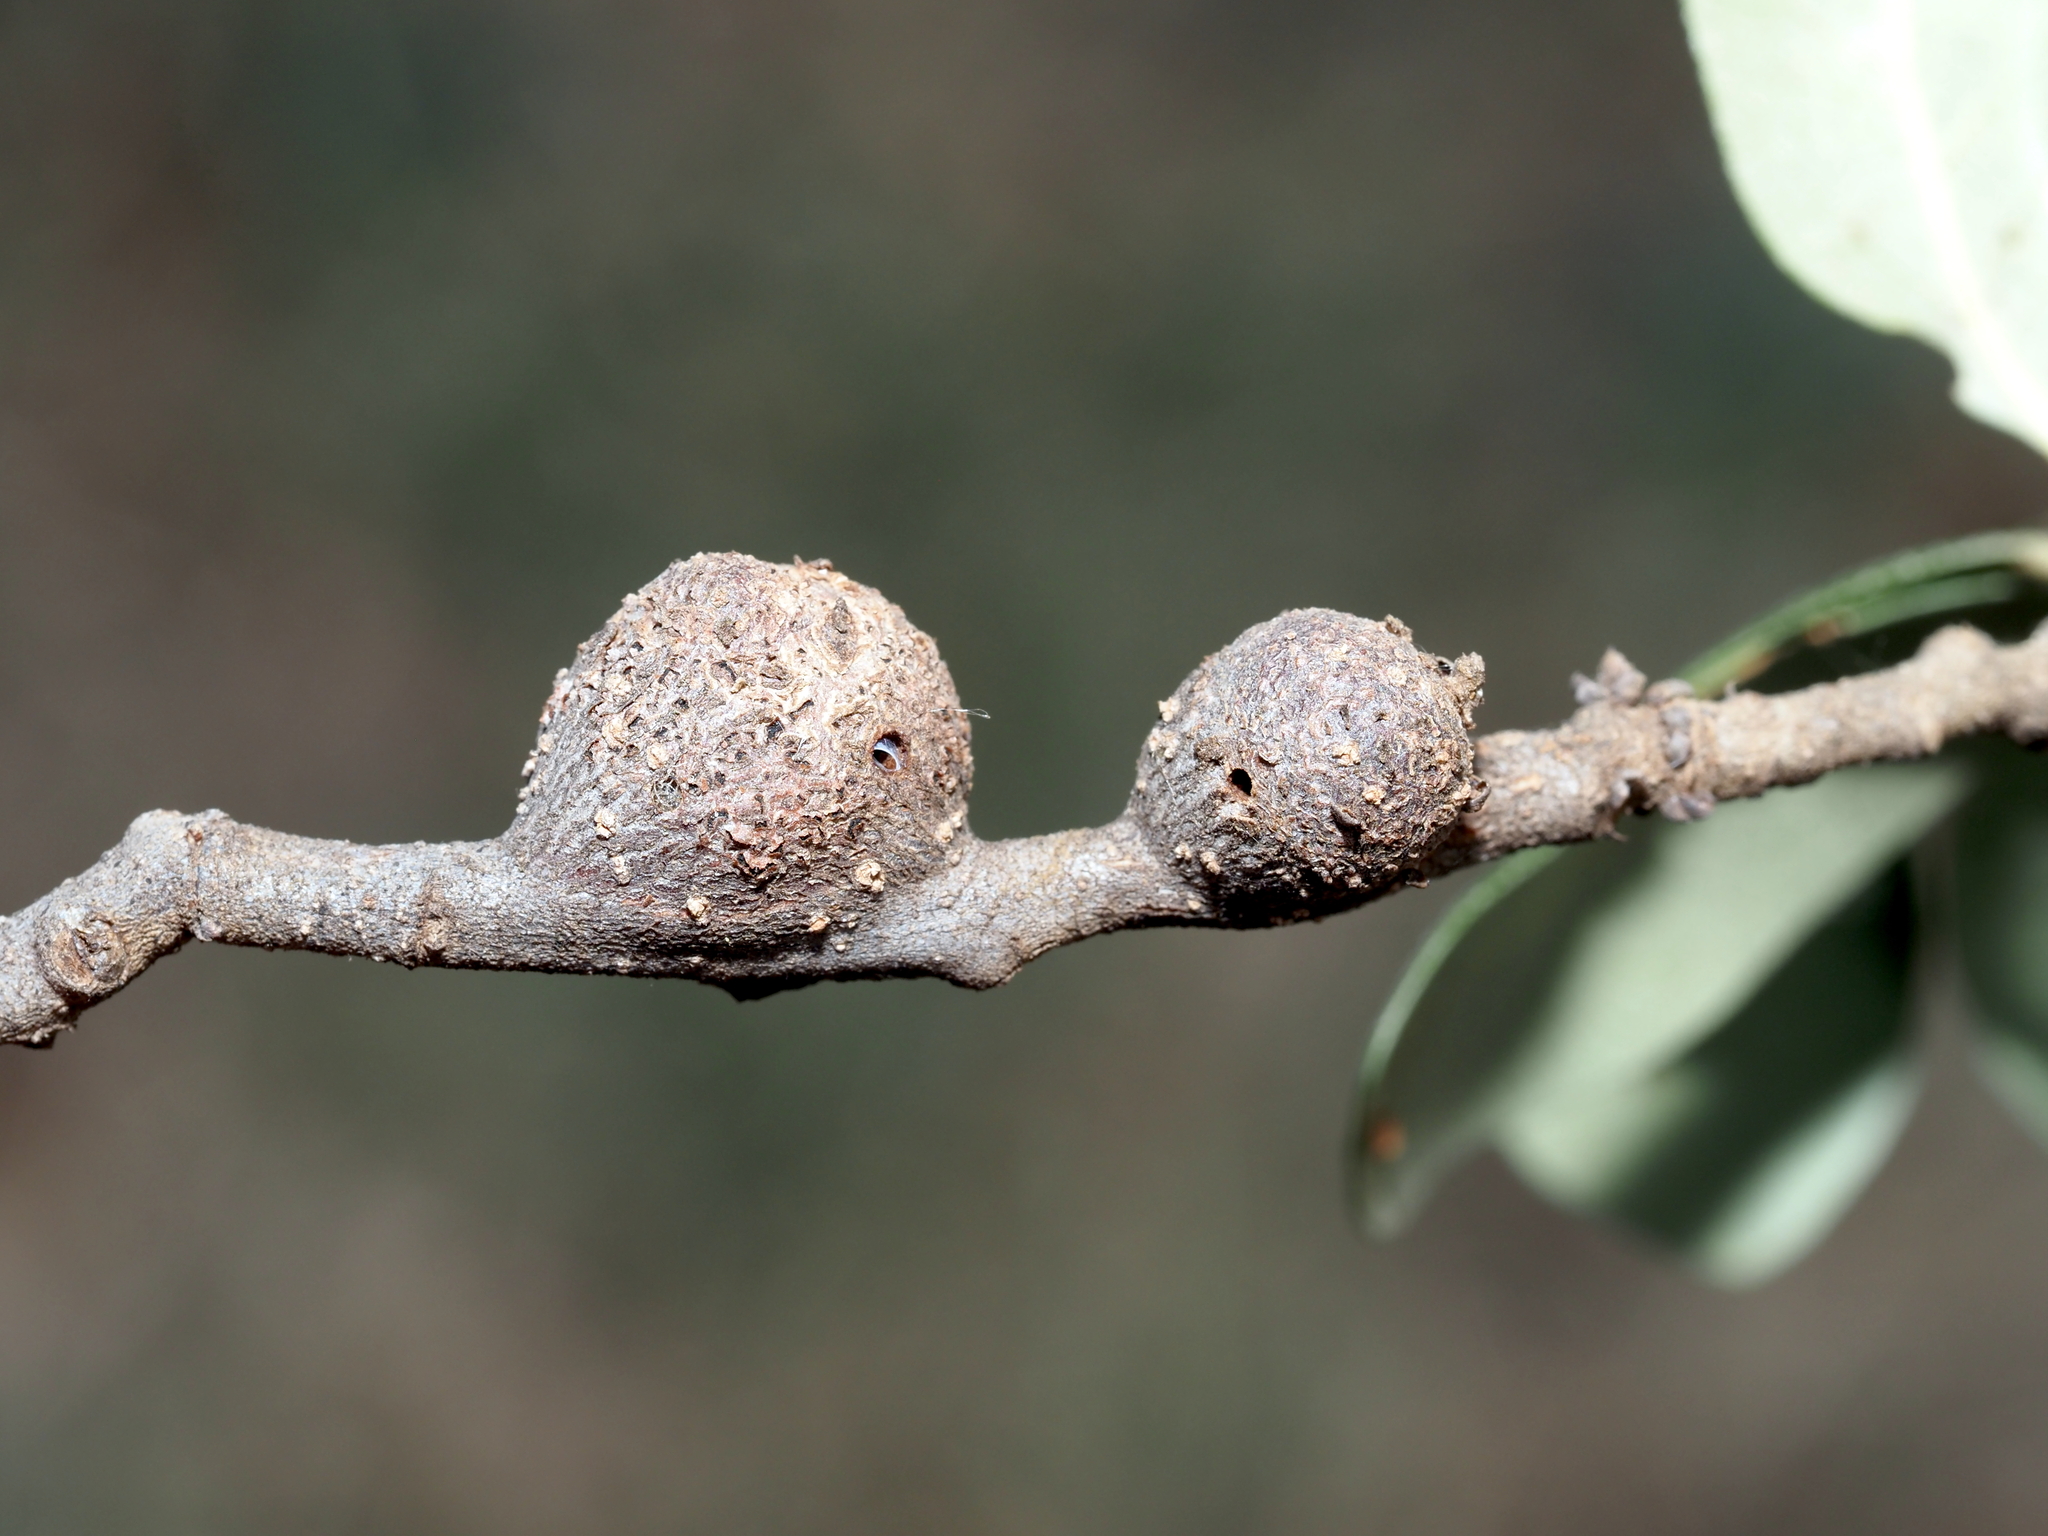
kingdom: Animalia
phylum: Arthropoda
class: Insecta
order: Hymenoptera
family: Cynipidae
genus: Callirhytis
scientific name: Callirhytis
